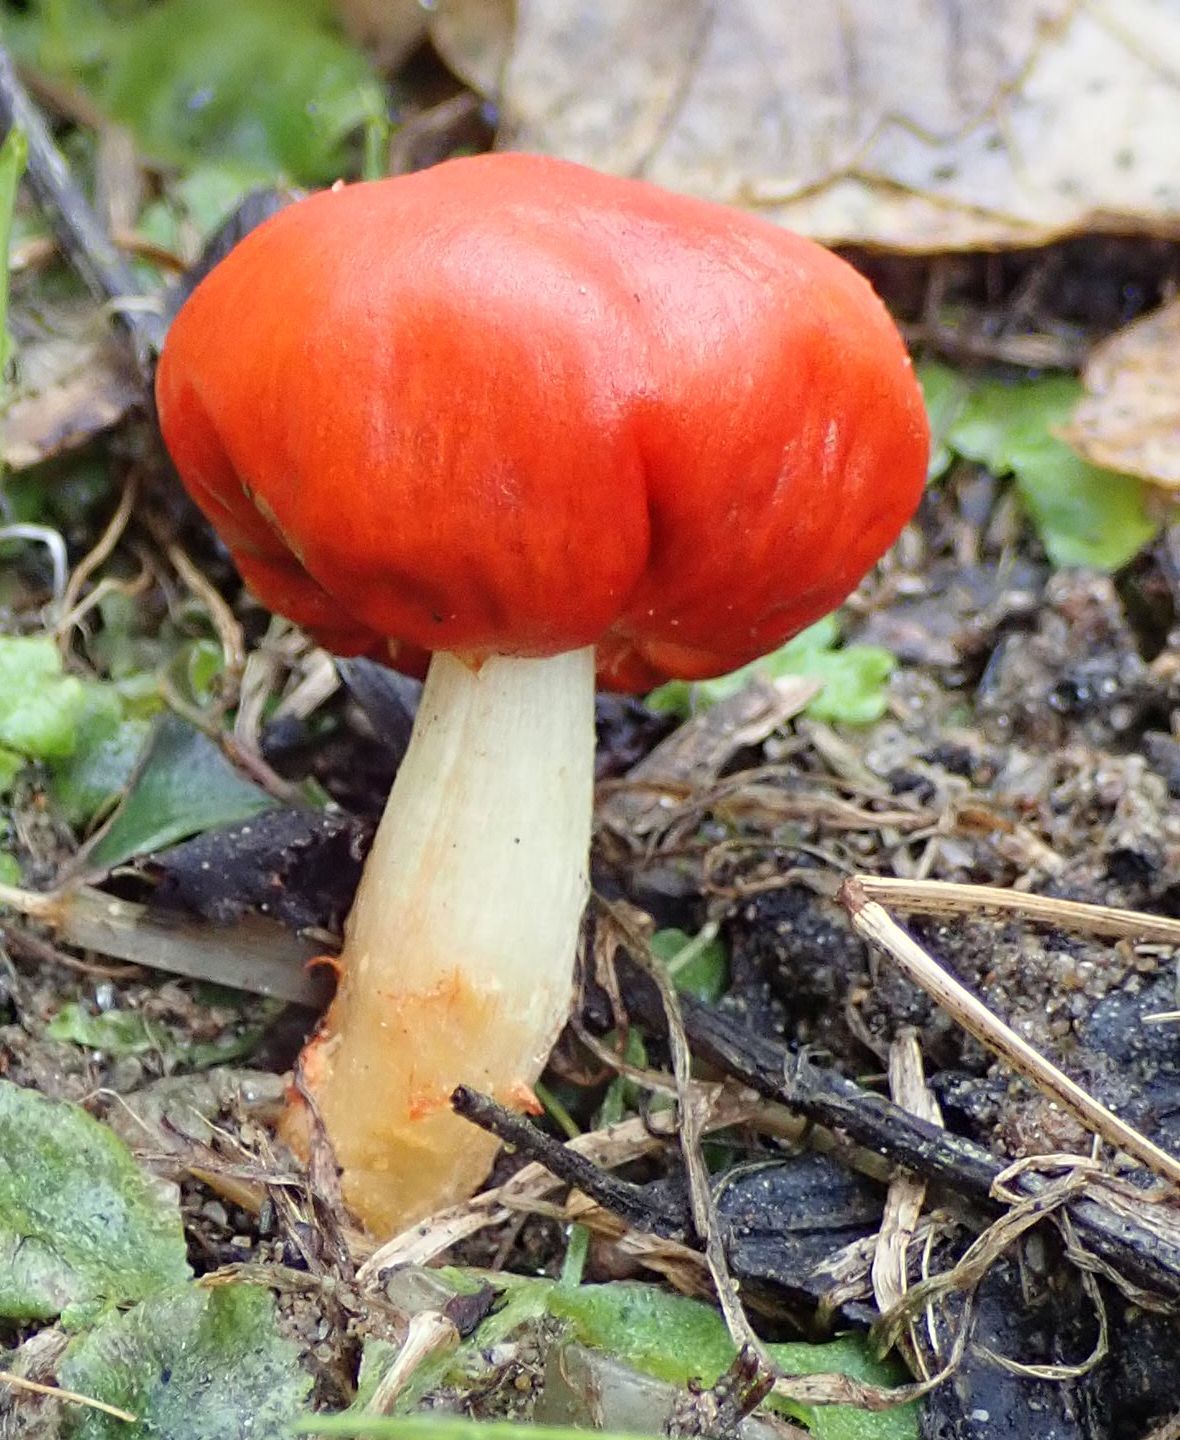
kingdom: Fungi
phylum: Basidiomycota
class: Agaricomycetes
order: Agaricales
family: Strophariaceae
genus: Leratiomyces
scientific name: Leratiomyces erythrocephalus
